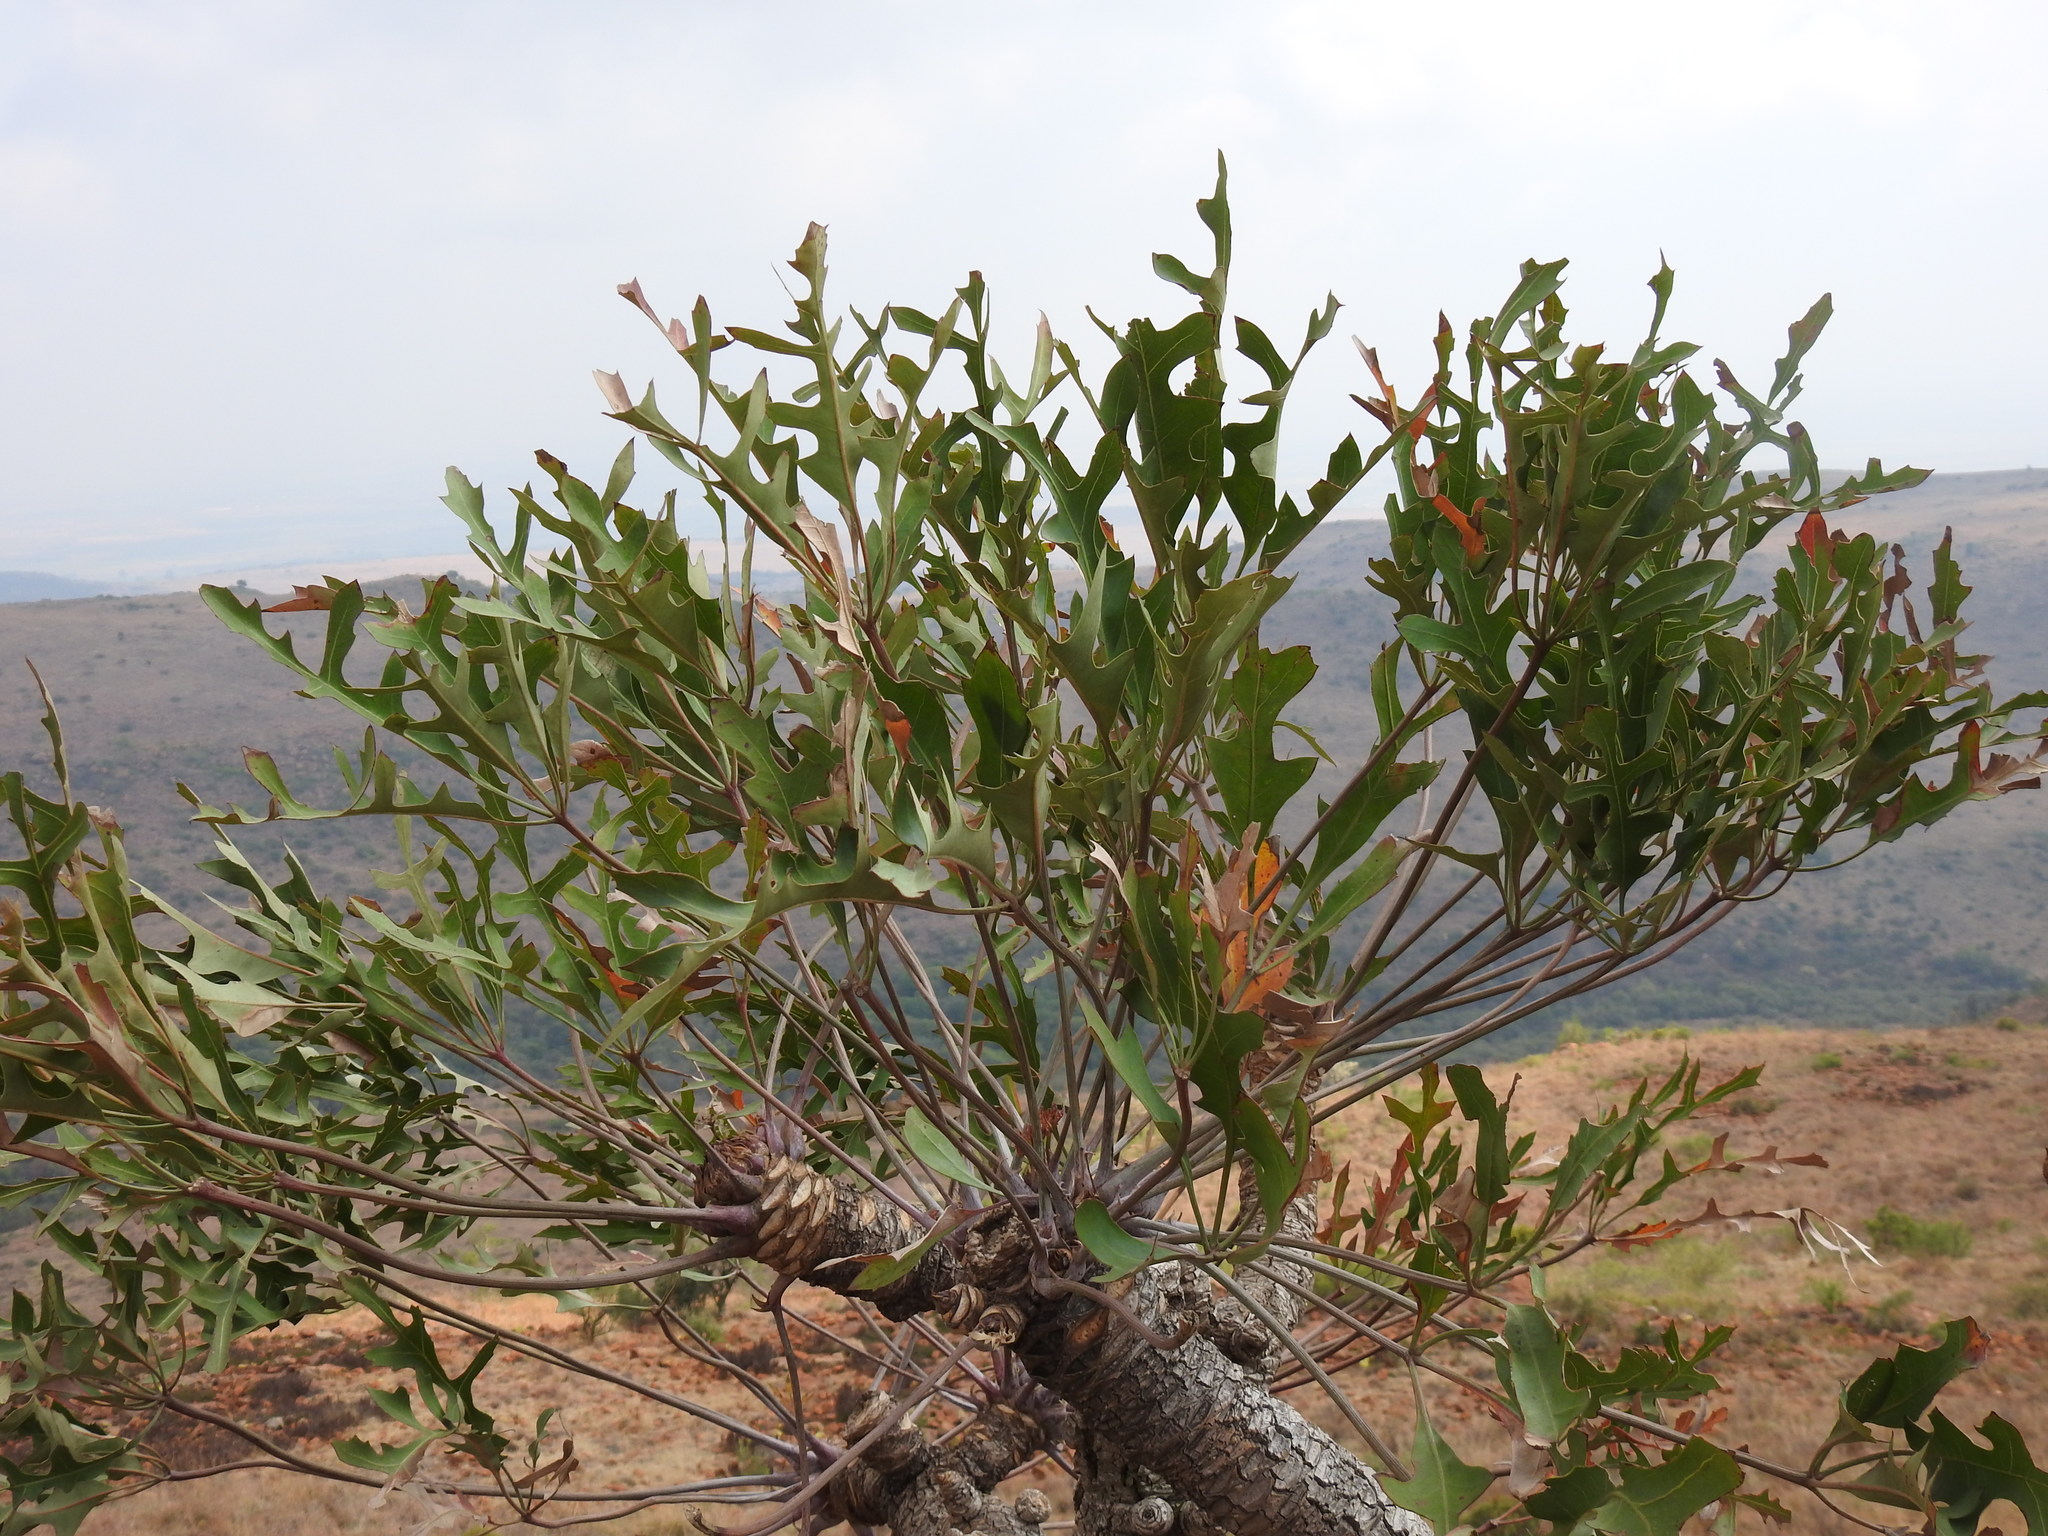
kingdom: Plantae
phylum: Tracheophyta
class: Magnoliopsida
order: Apiales
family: Araliaceae
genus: Cussonia
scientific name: Cussonia paniculata
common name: Cabbagetree
